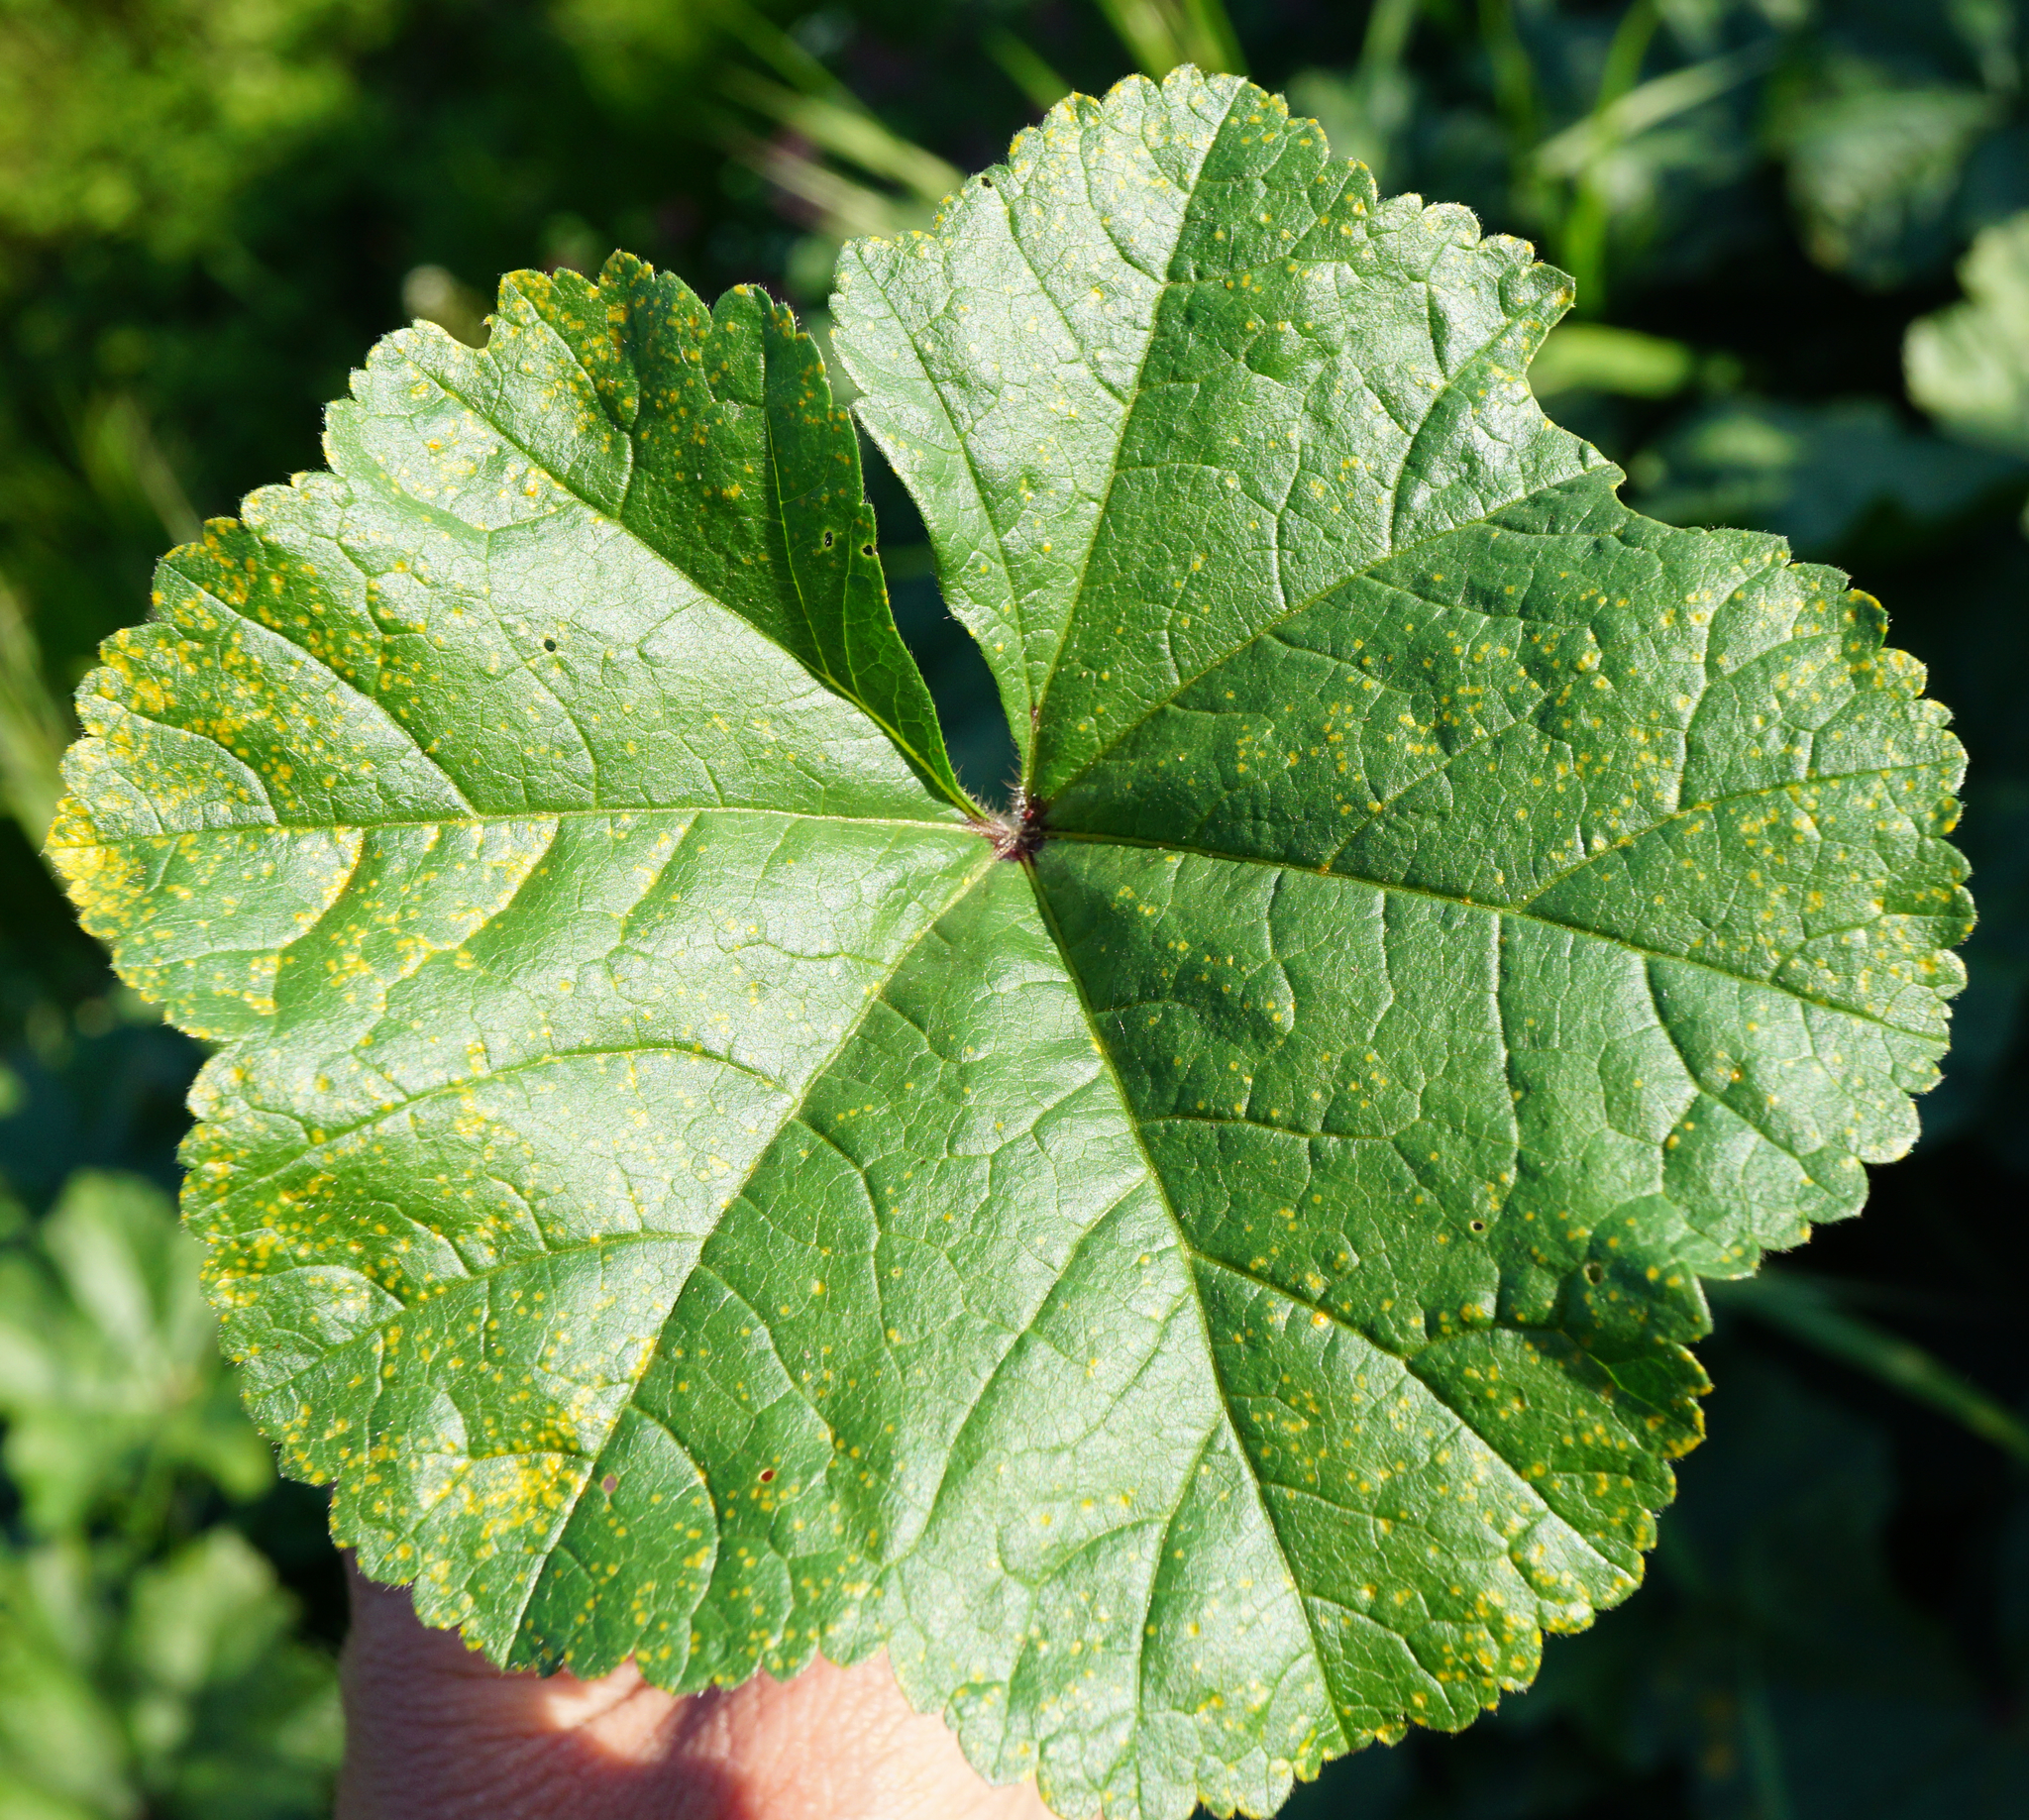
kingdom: Fungi
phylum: Basidiomycota
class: Pucciniomycetes
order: Pucciniales
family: Pucciniaceae
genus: Puccinia
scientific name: Puccinia malvacearum
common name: Hollyhock rust
